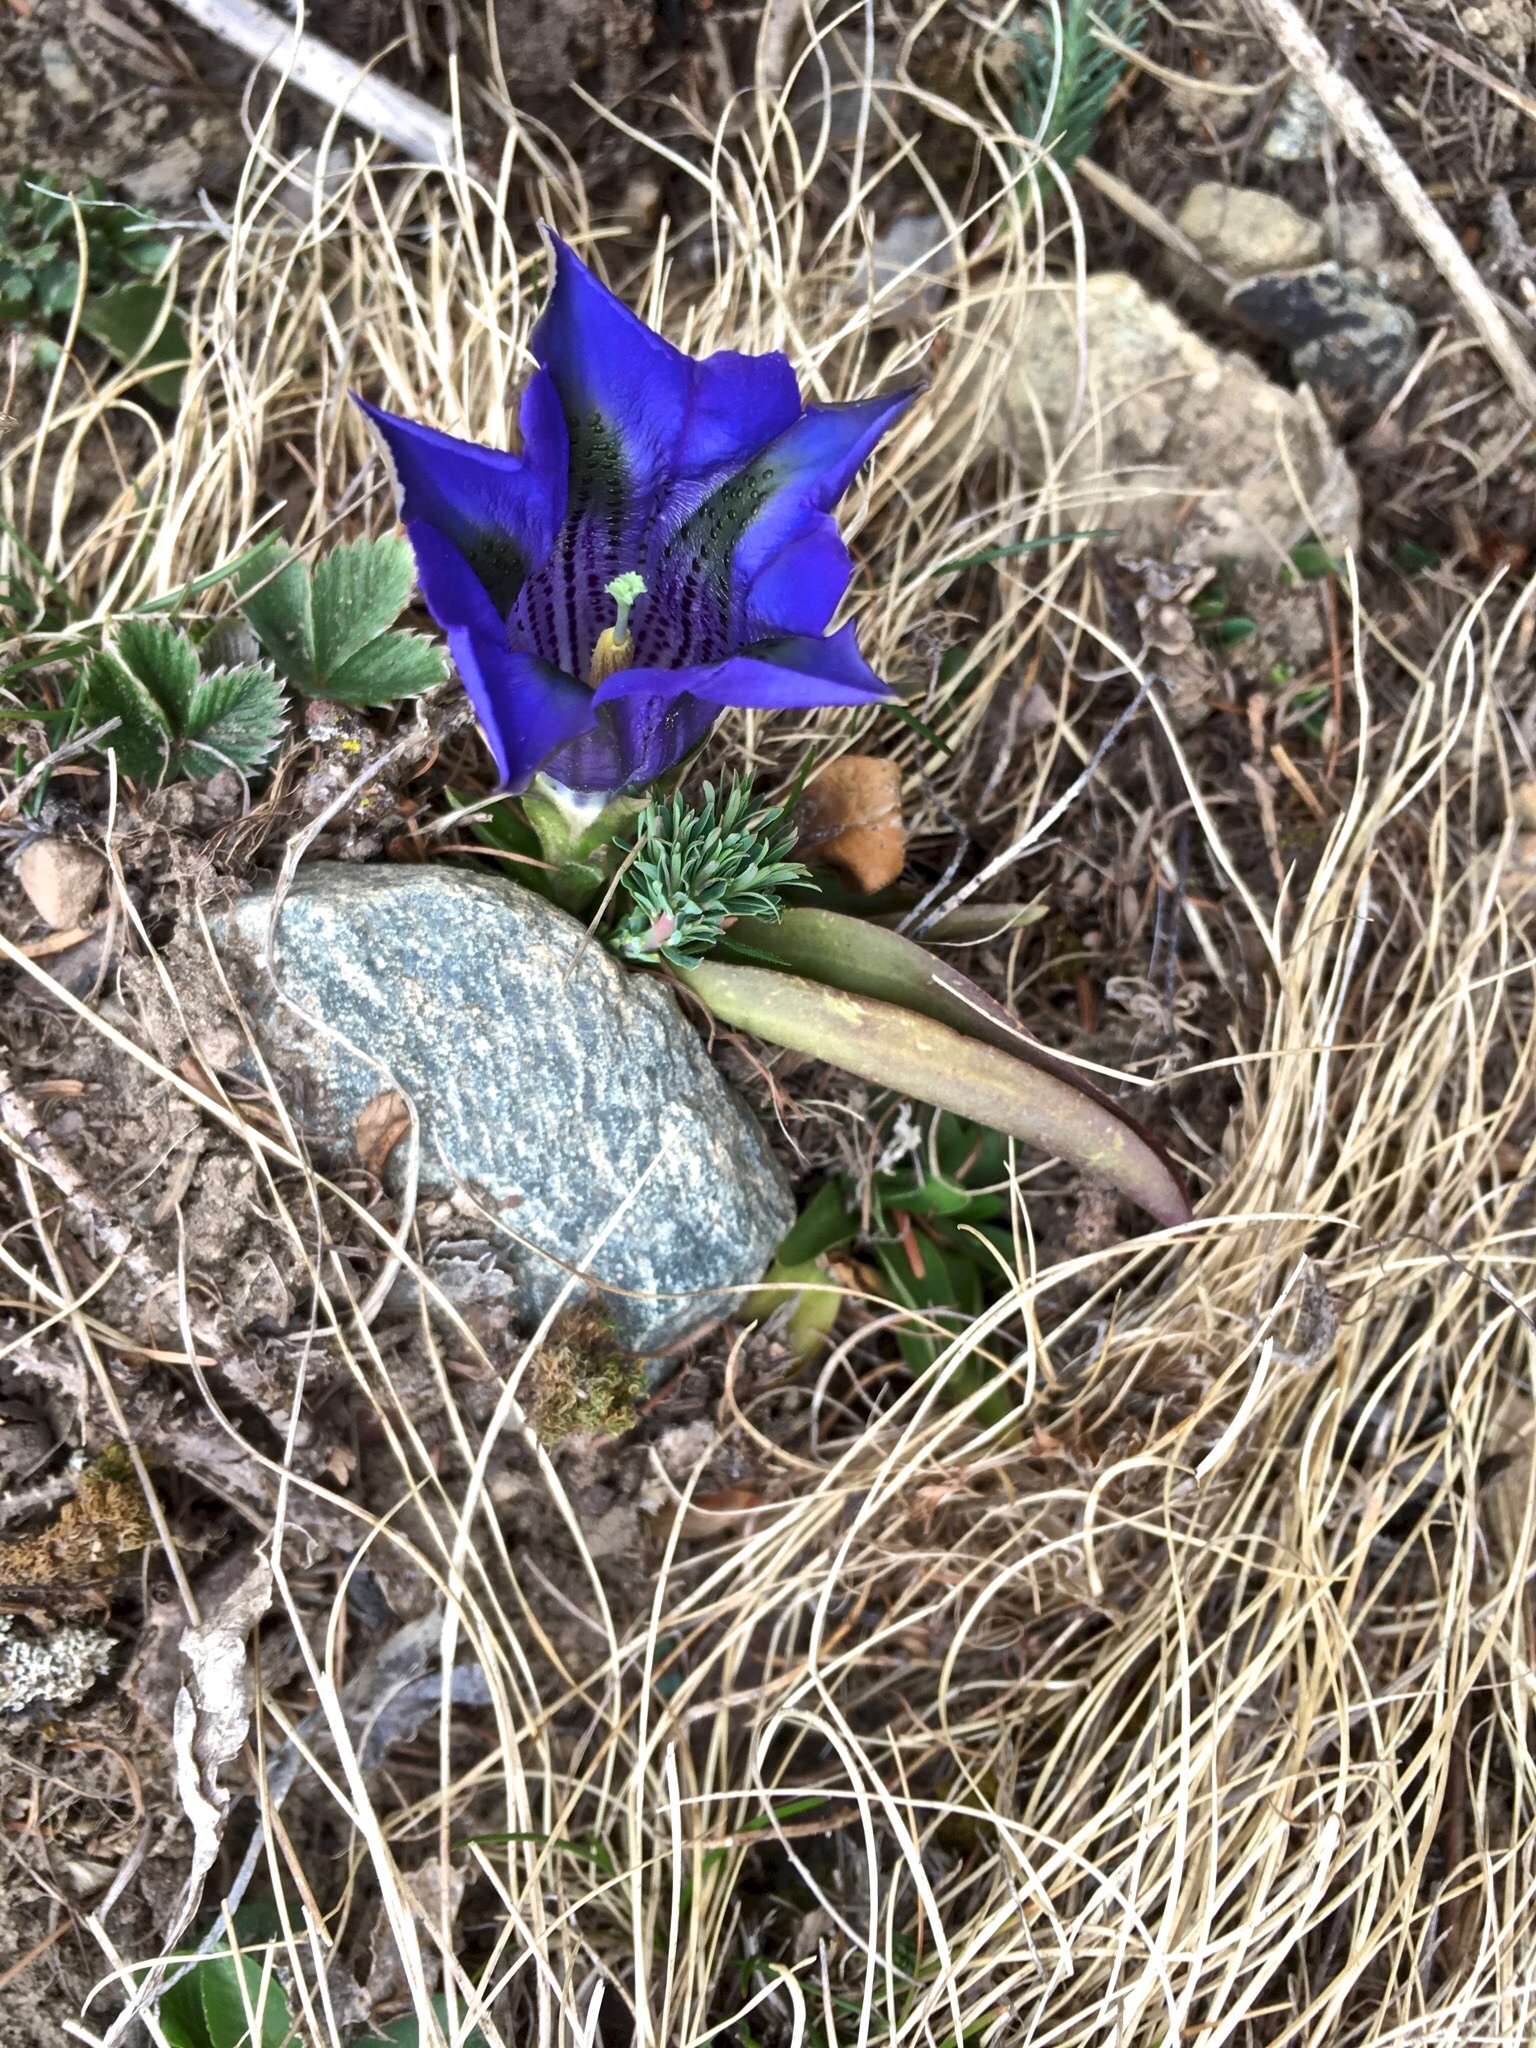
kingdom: Plantae
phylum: Tracheophyta
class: Magnoliopsida
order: Gentianales
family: Gentianaceae
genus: Gentiana
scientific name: Gentiana acaulis
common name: Trumpet gentian
